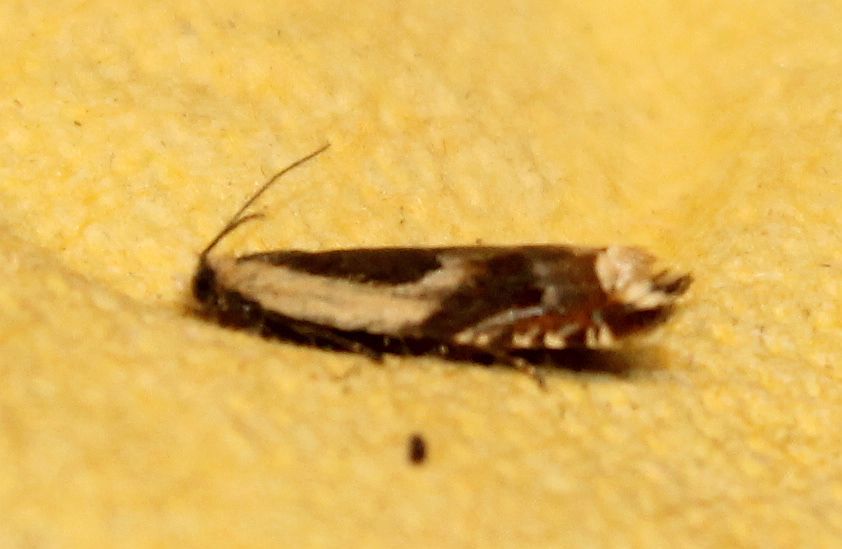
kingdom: Animalia
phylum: Arthropoda
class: Insecta
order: Lepidoptera
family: Tortricidae
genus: Ancylis
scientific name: Ancylis badiana
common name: Common roller
